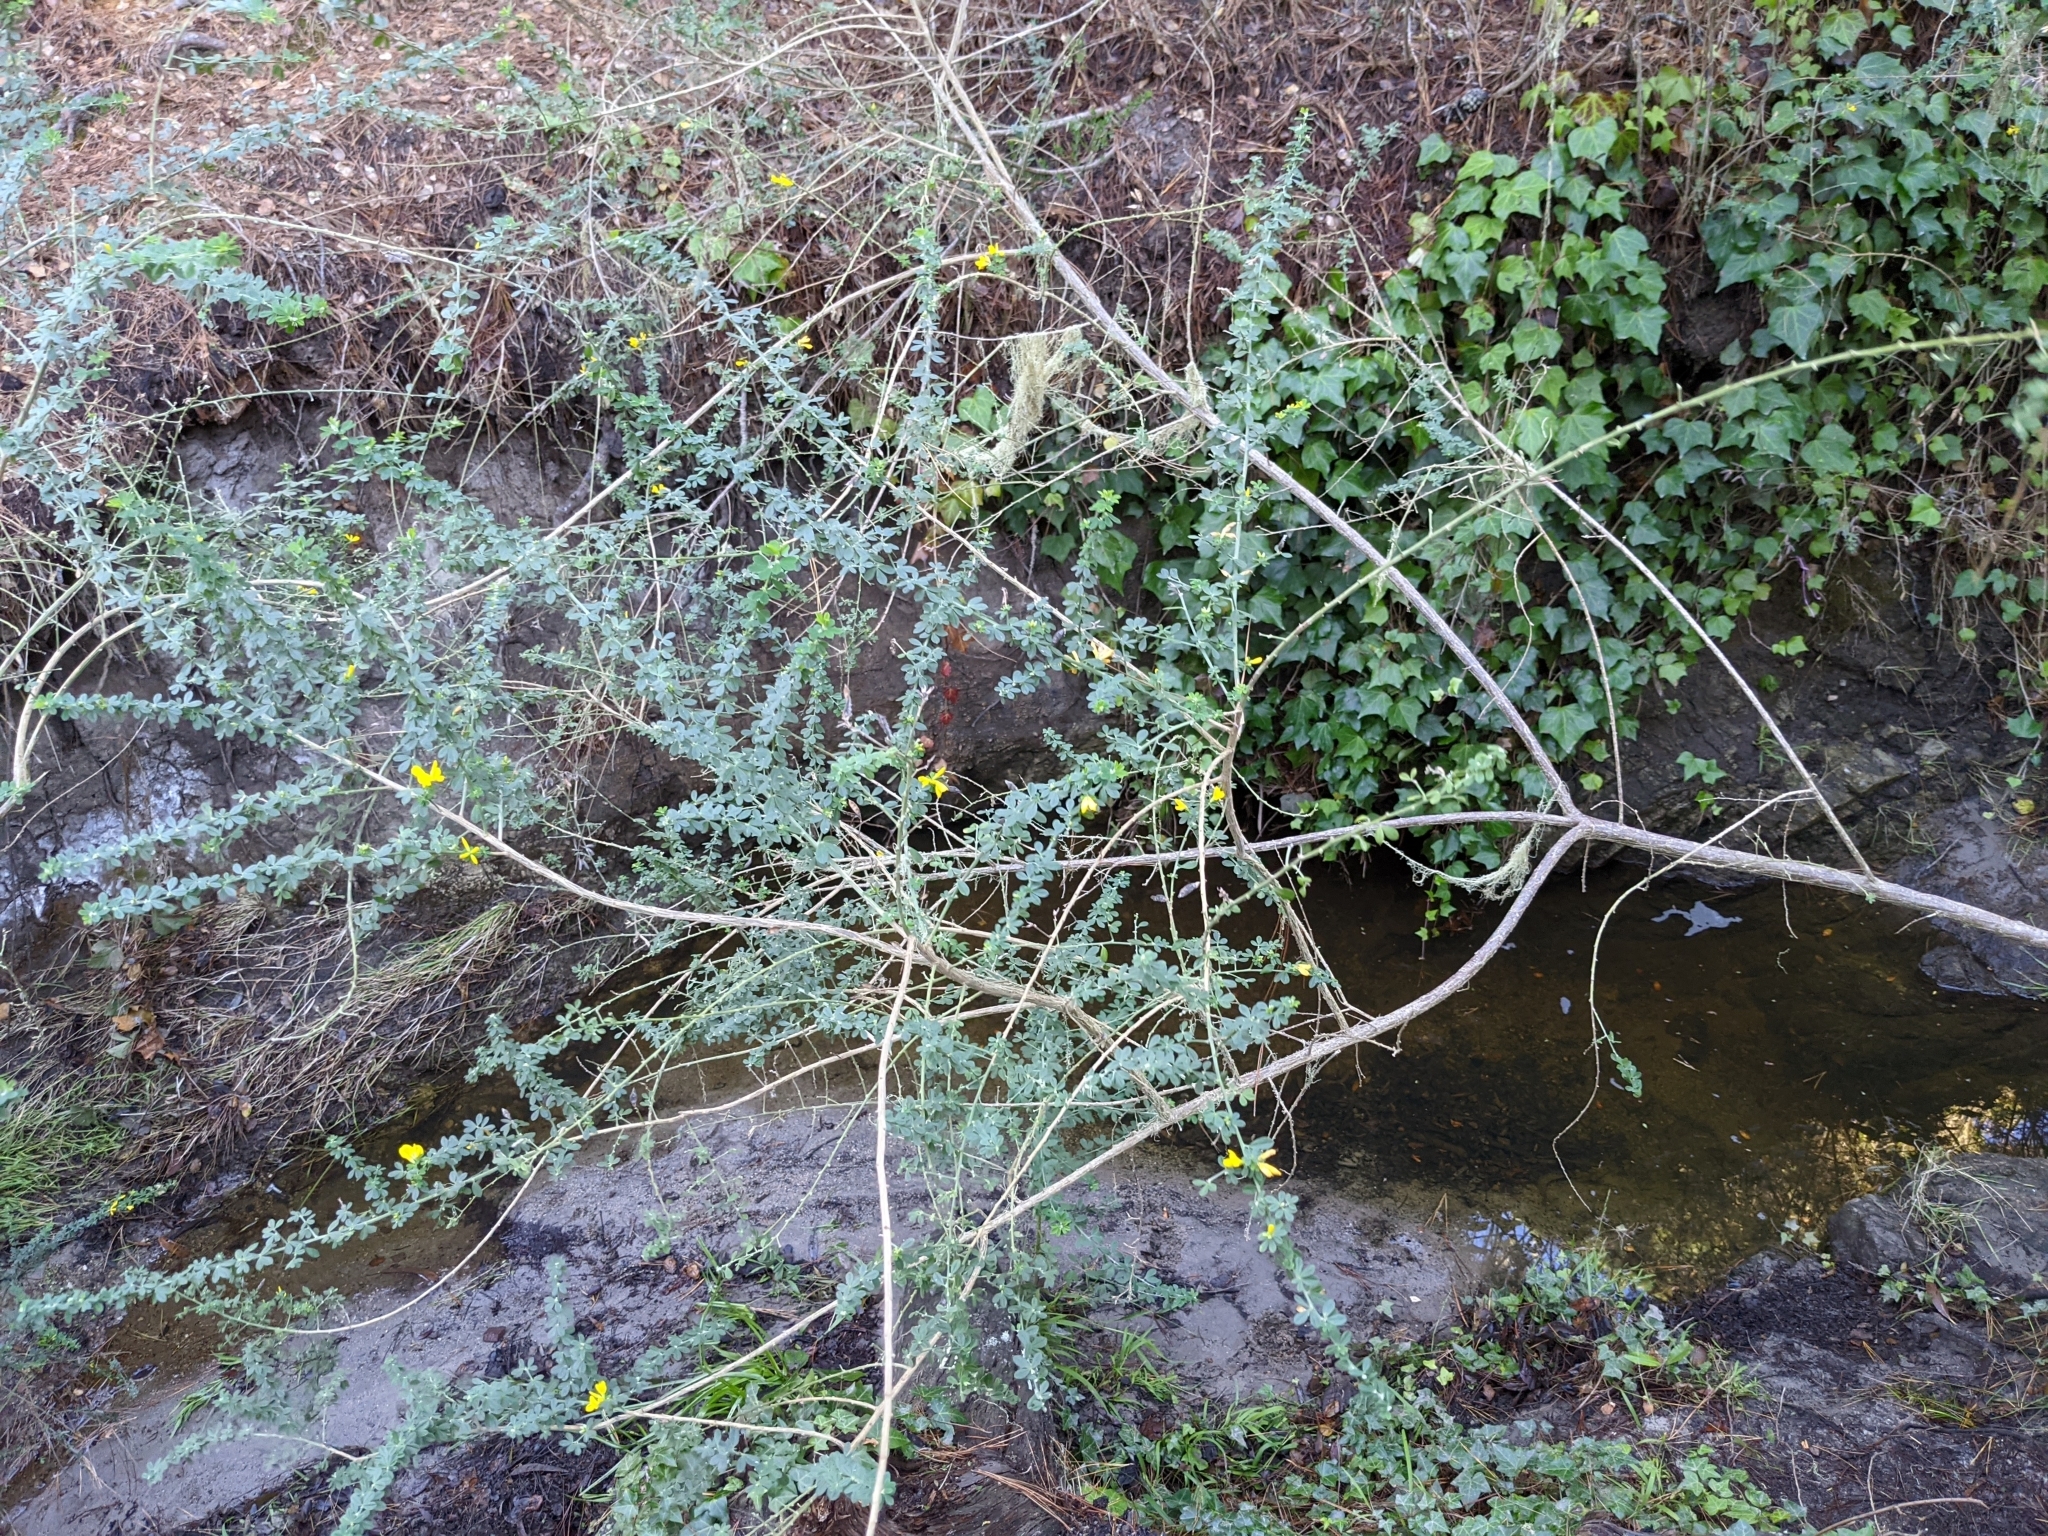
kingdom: Plantae
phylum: Tracheophyta
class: Magnoliopsida
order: Fabales
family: Fabaceae
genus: Genista
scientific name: Genista monspessulana
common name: Montpellier broom
